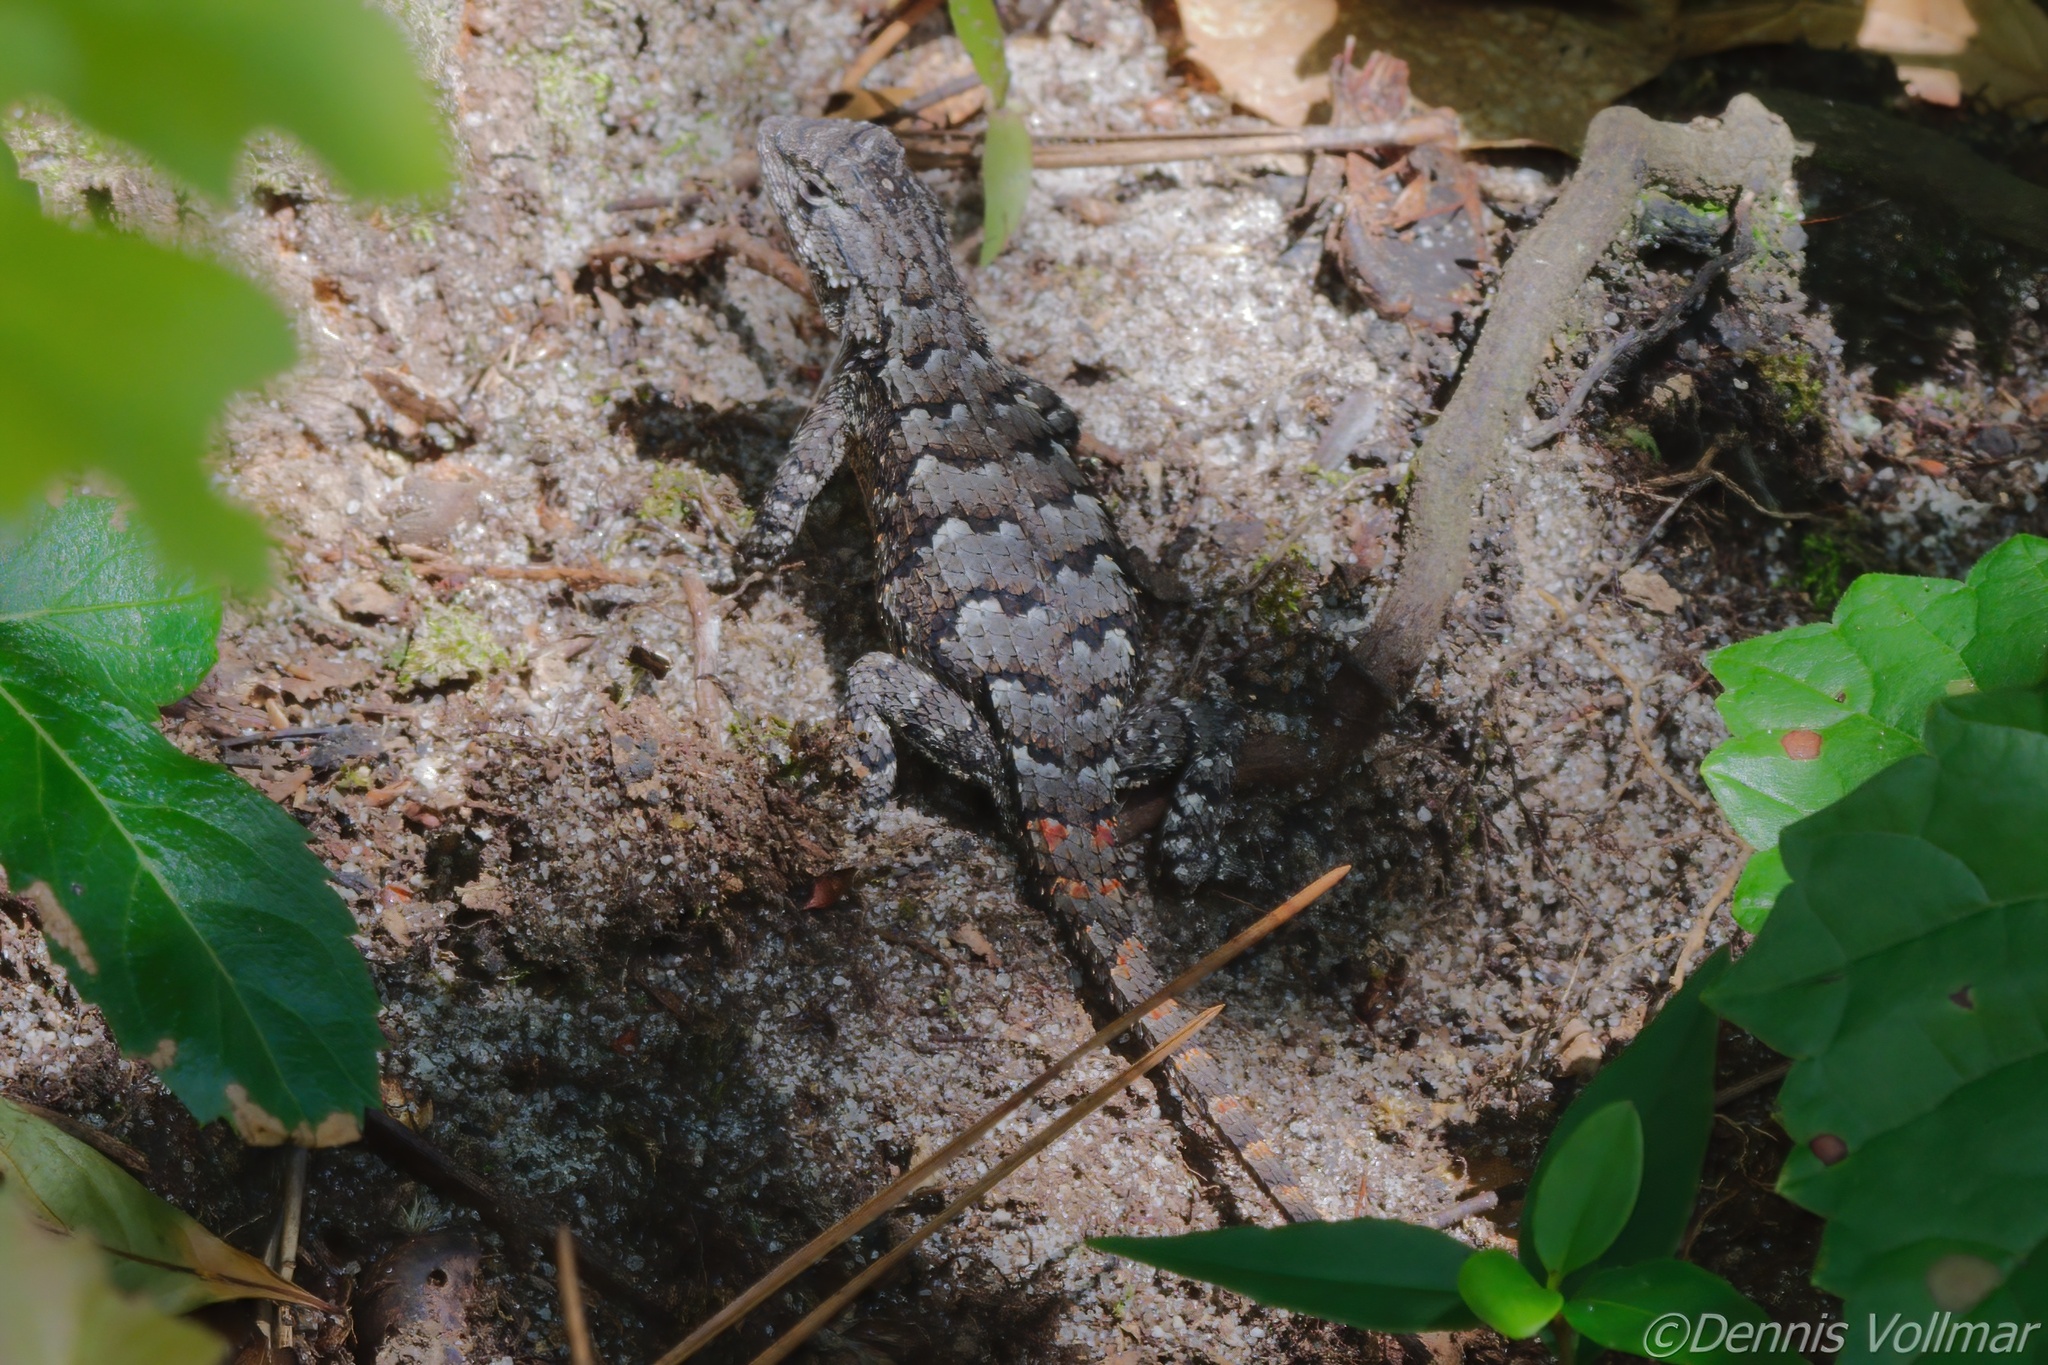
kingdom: Animalia
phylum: Chordata
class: Squamata
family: Phrynosomatidae
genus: Sceloporus
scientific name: Sceloporus undulatus
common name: Eastern fence lizard
